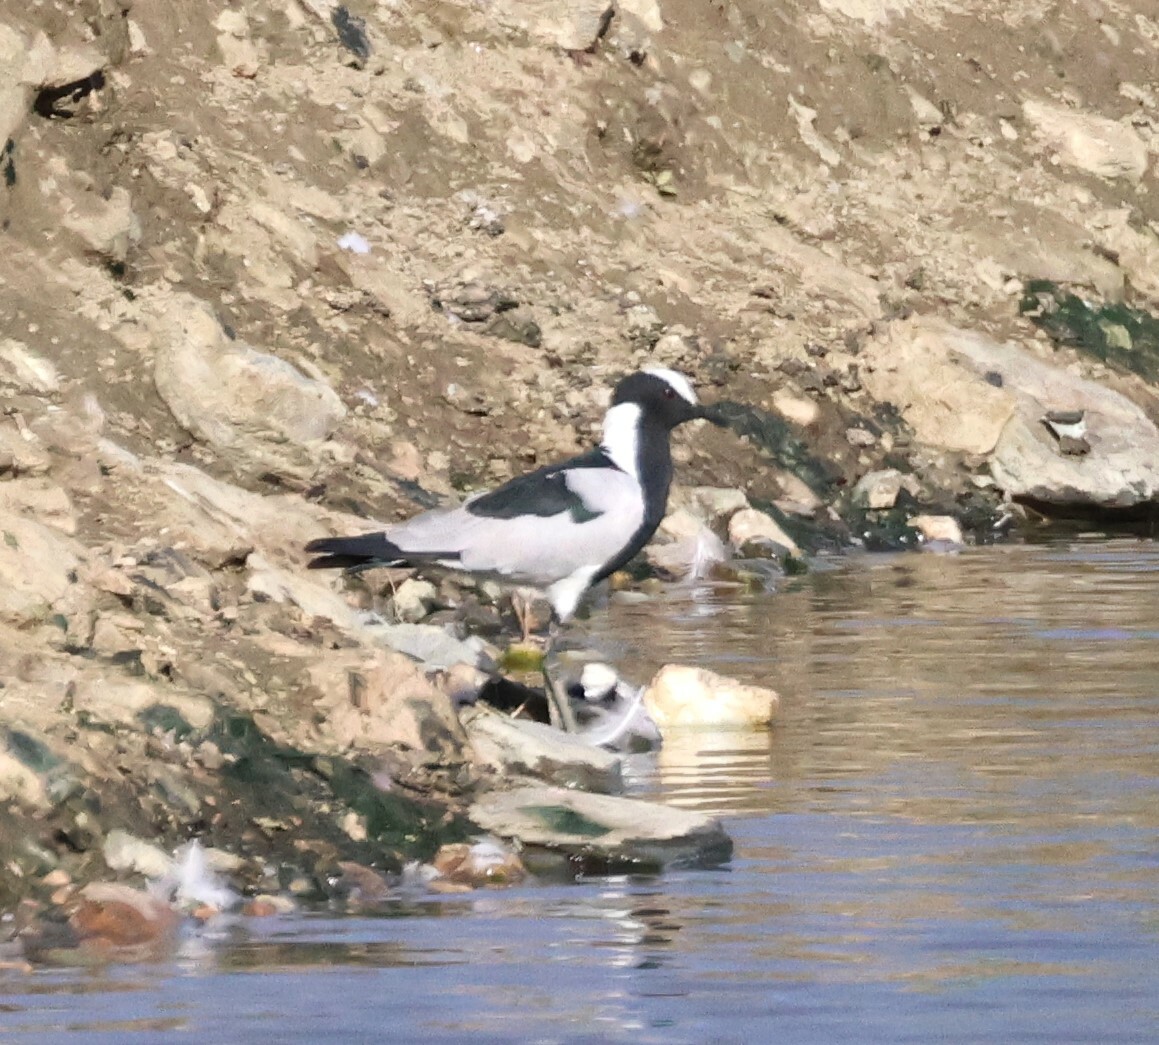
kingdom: Animalia
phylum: Chordata
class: Aves
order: Charadriiformes
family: Charadriidae
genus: Vanellus
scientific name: Vanellus armatus
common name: Blacksmith lapwing
